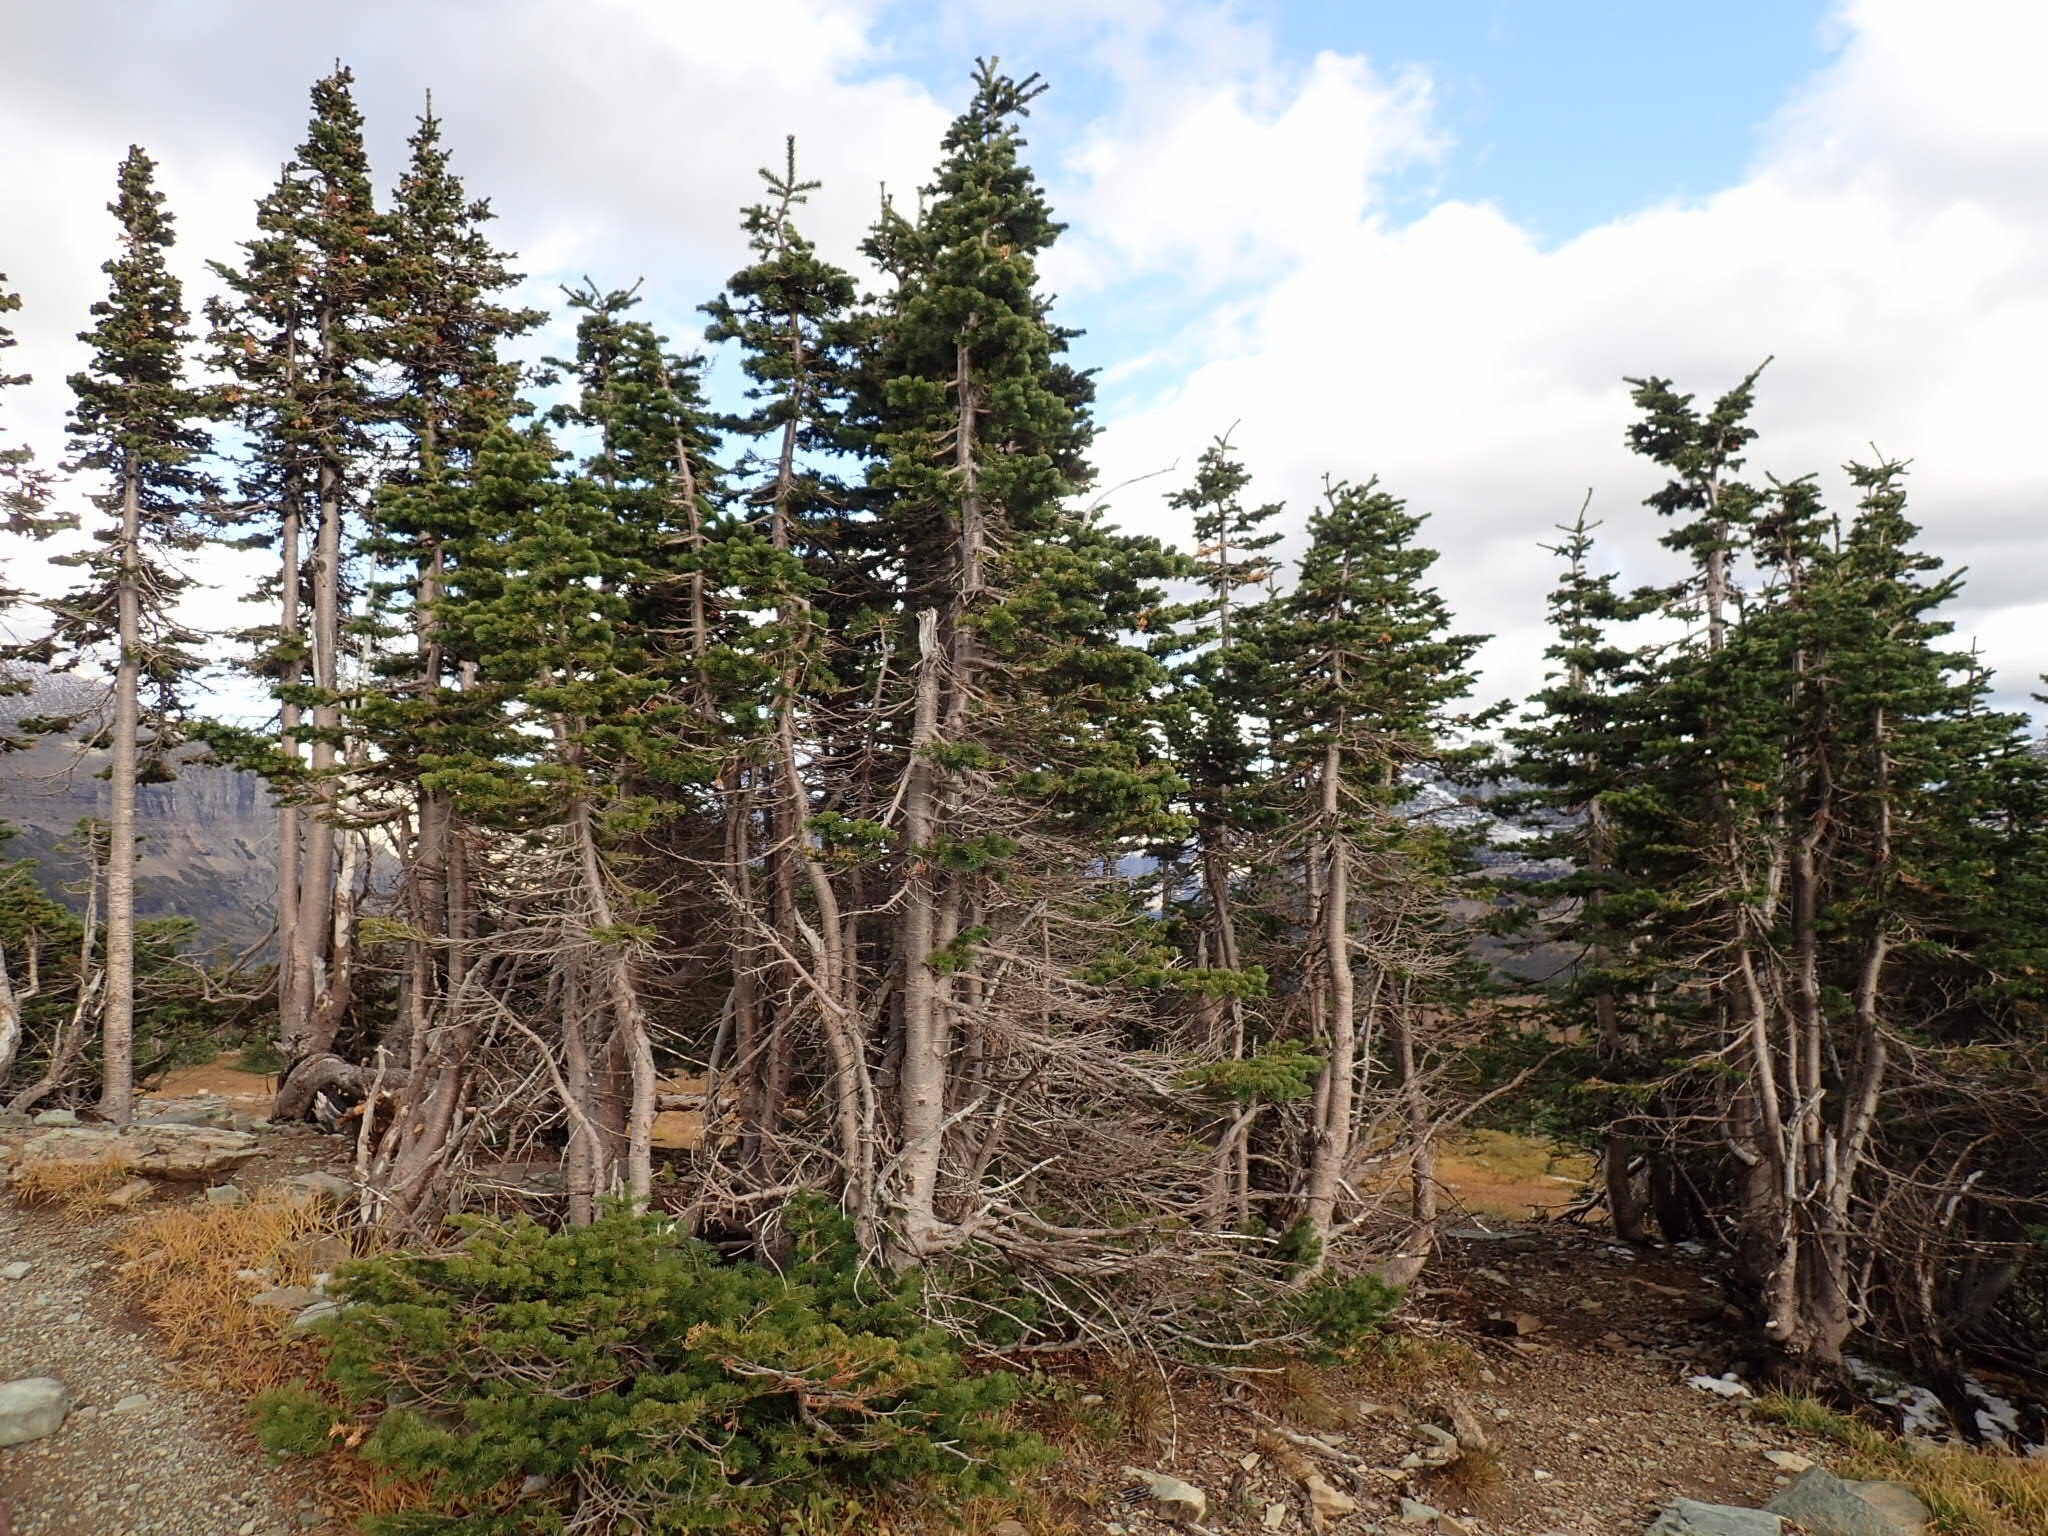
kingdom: Plantae
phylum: Tracheophyta
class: Pinopsida
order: Pinales
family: Pinaceae
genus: Abies
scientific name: Abies lasiocarpa
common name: Subalpine fir
